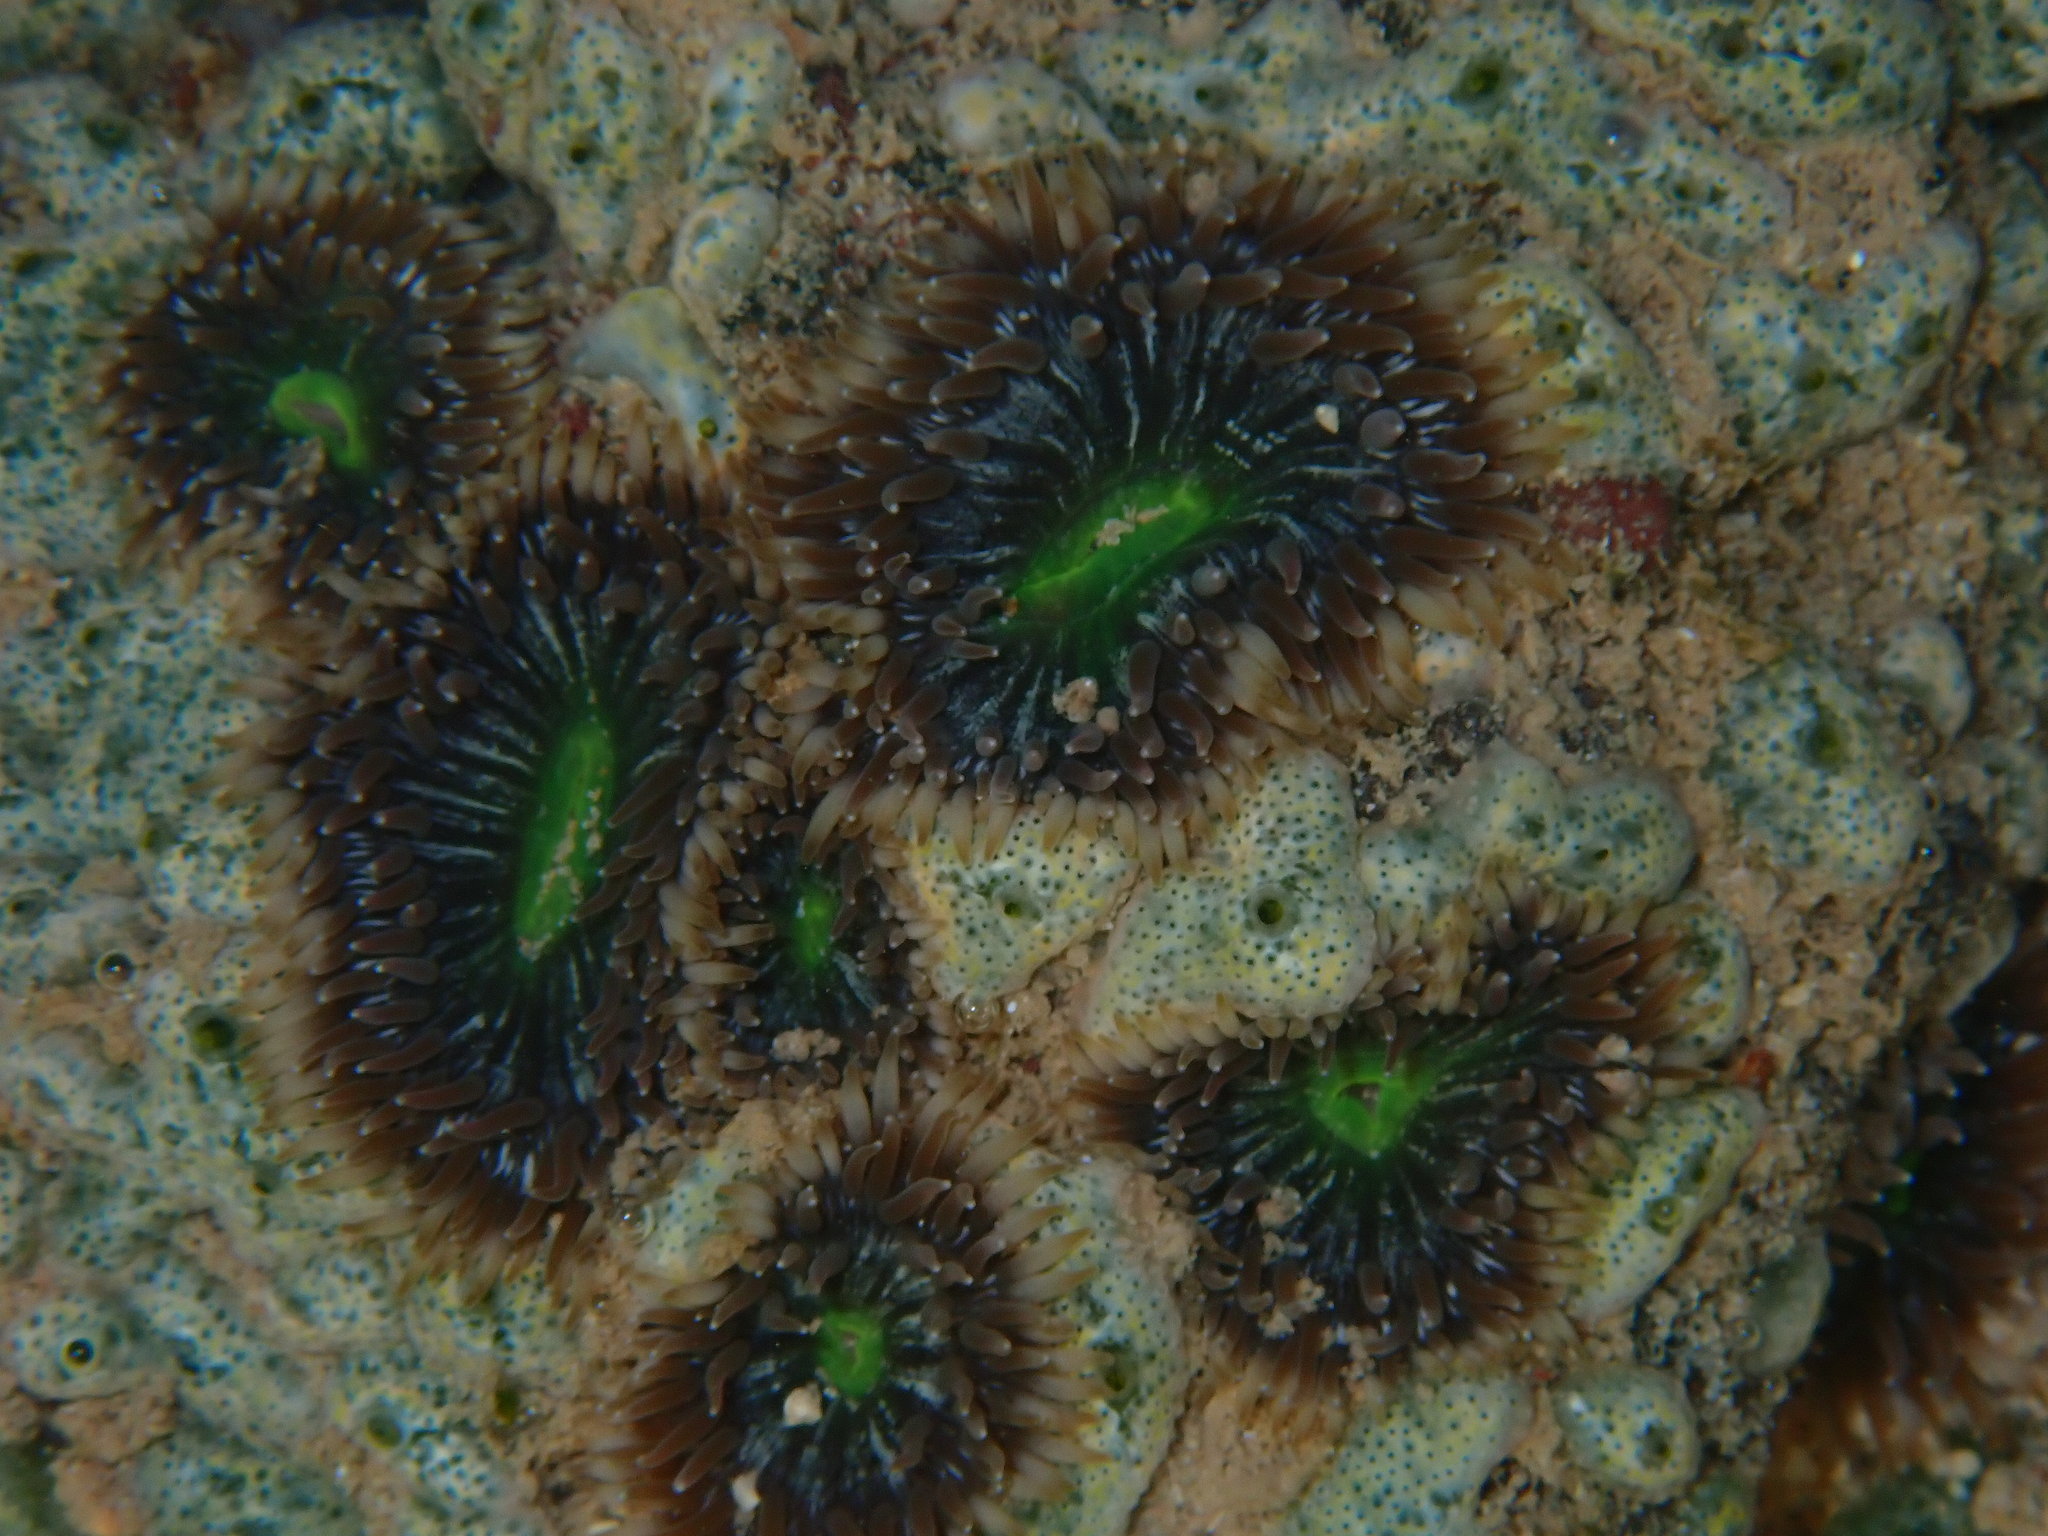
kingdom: Animalia
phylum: Cnidaria
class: Anthozoa
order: Actiniaria
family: Actiniidae
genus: Gyractis
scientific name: Gyractis sesere
